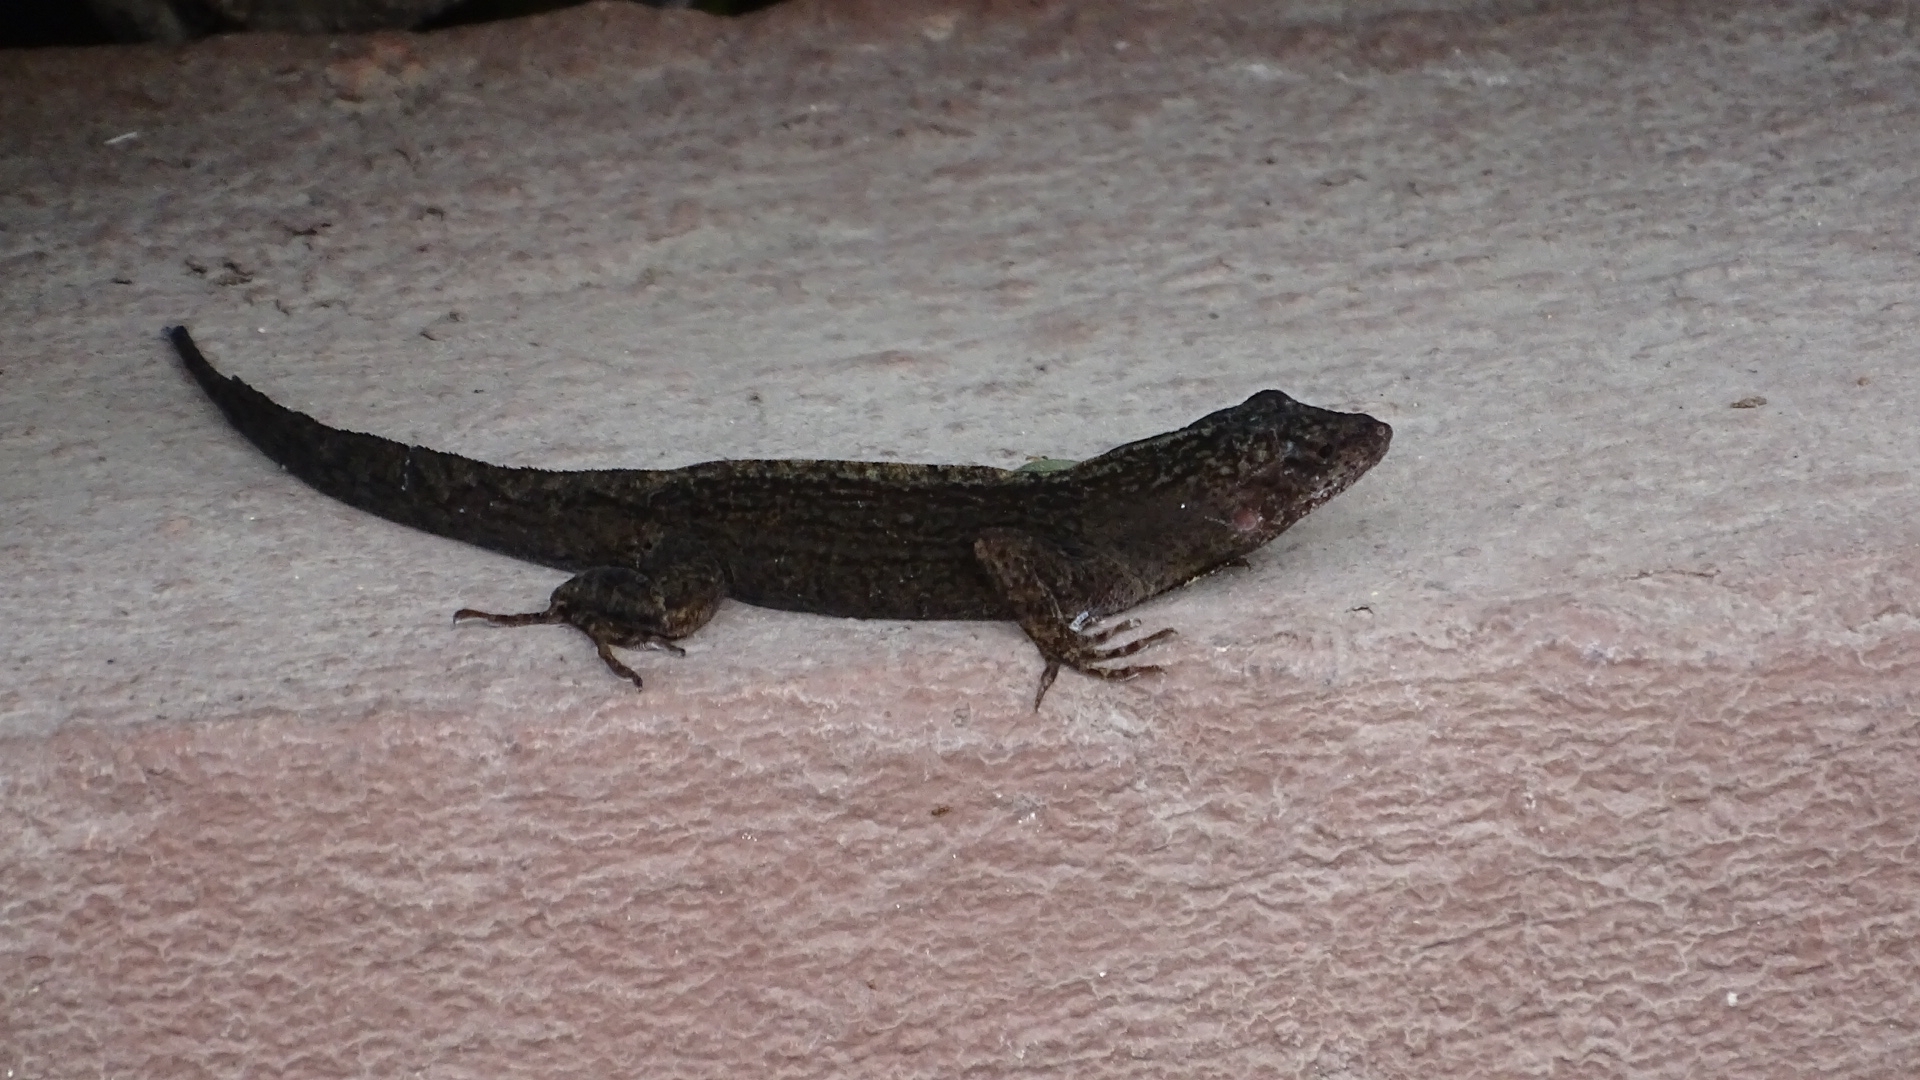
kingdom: Animalia
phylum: Chordata
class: Squamata
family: Dactyloidae
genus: Anolis
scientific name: Anolis sagrei
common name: Brown anole
